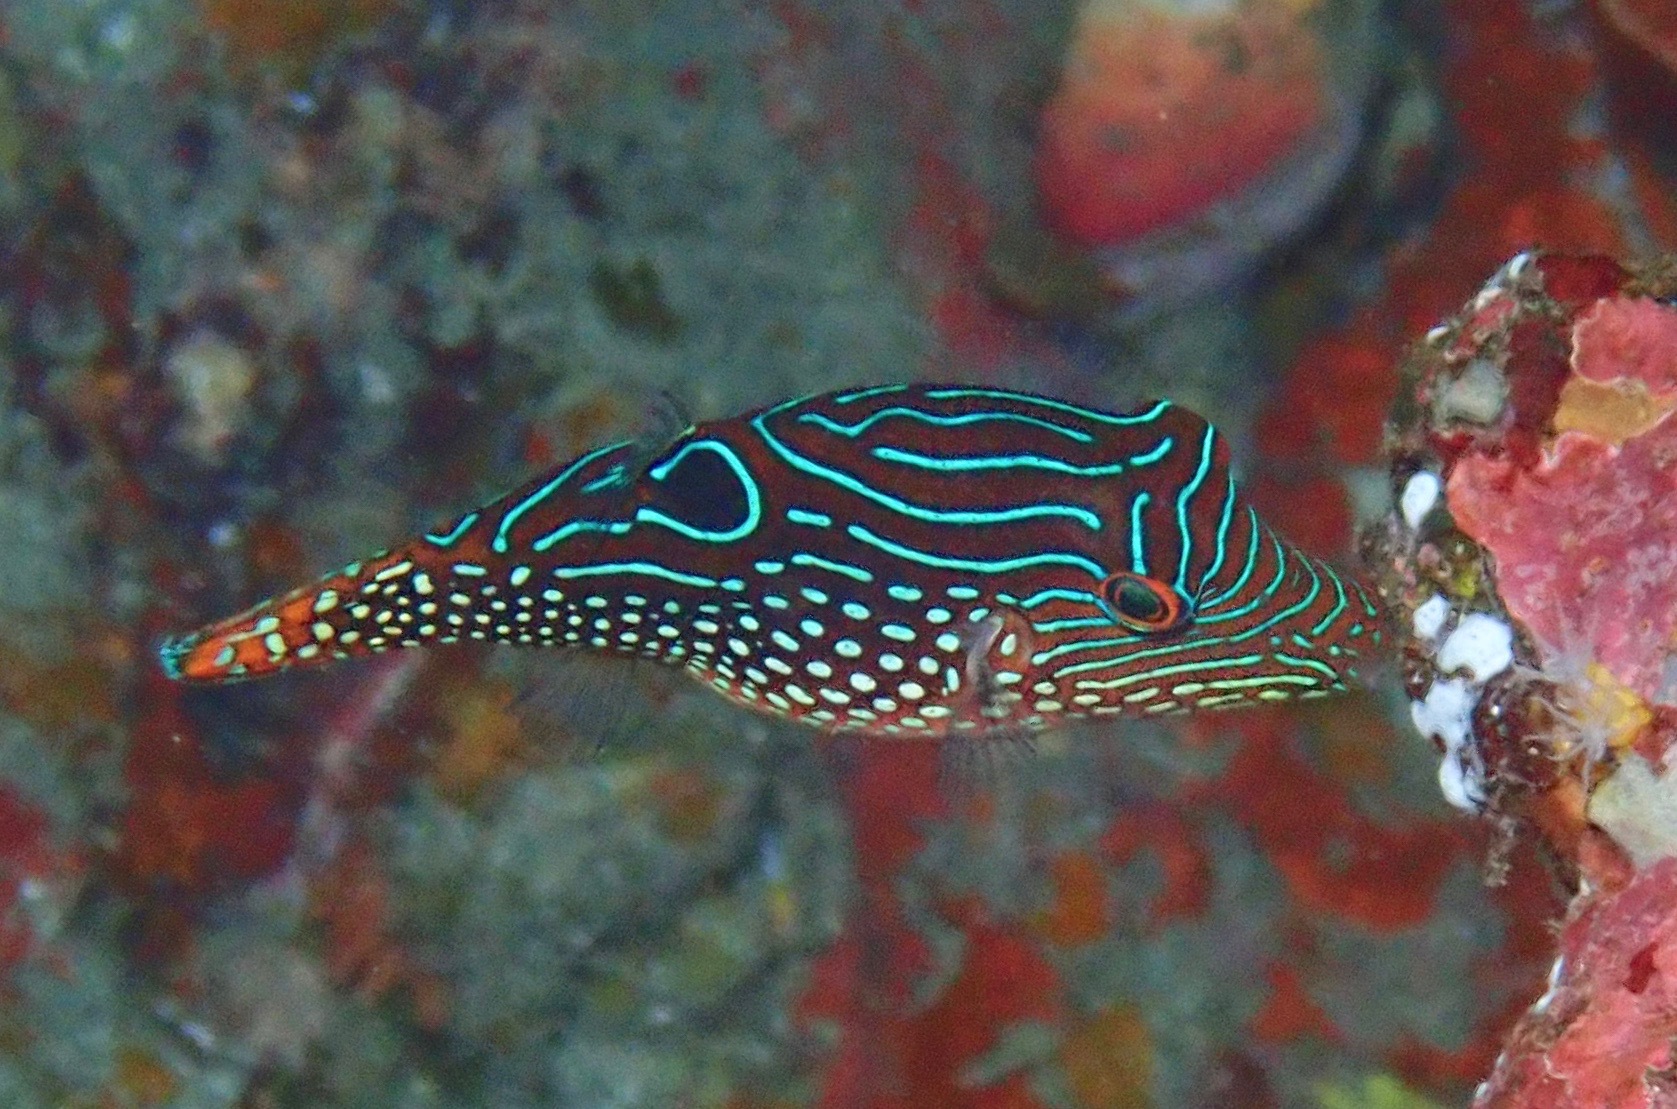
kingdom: Animalia
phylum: Chordata
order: Tetraodontiformes
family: Tetraodontidae
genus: Canthigaster
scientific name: Canthigaster petersii
